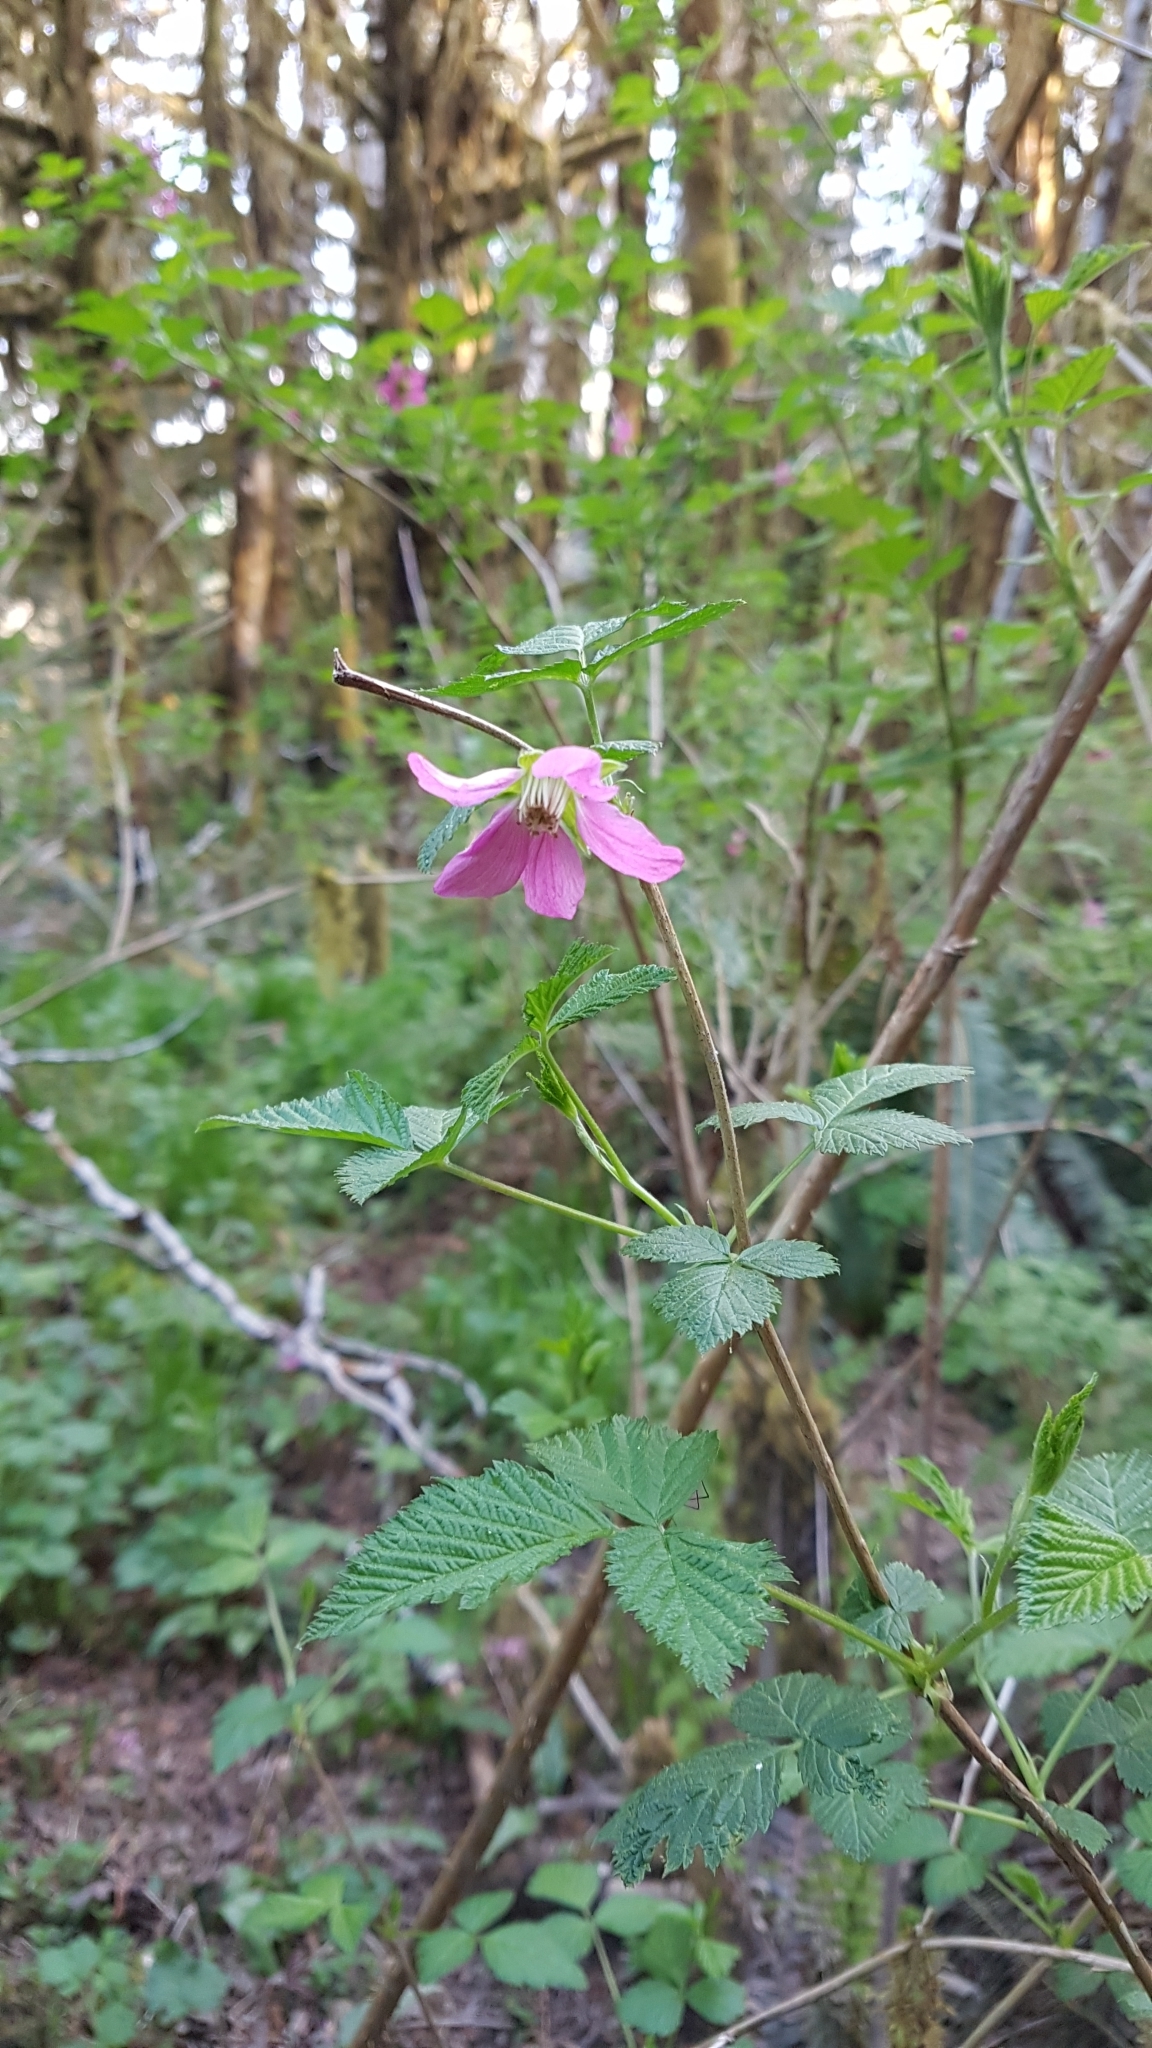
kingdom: Plantae
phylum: Tracheophyta
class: Magnoliopsida
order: Rosales
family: Rosaceae
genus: Rubus
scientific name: Rubus spectabilis
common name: Salmonberry
